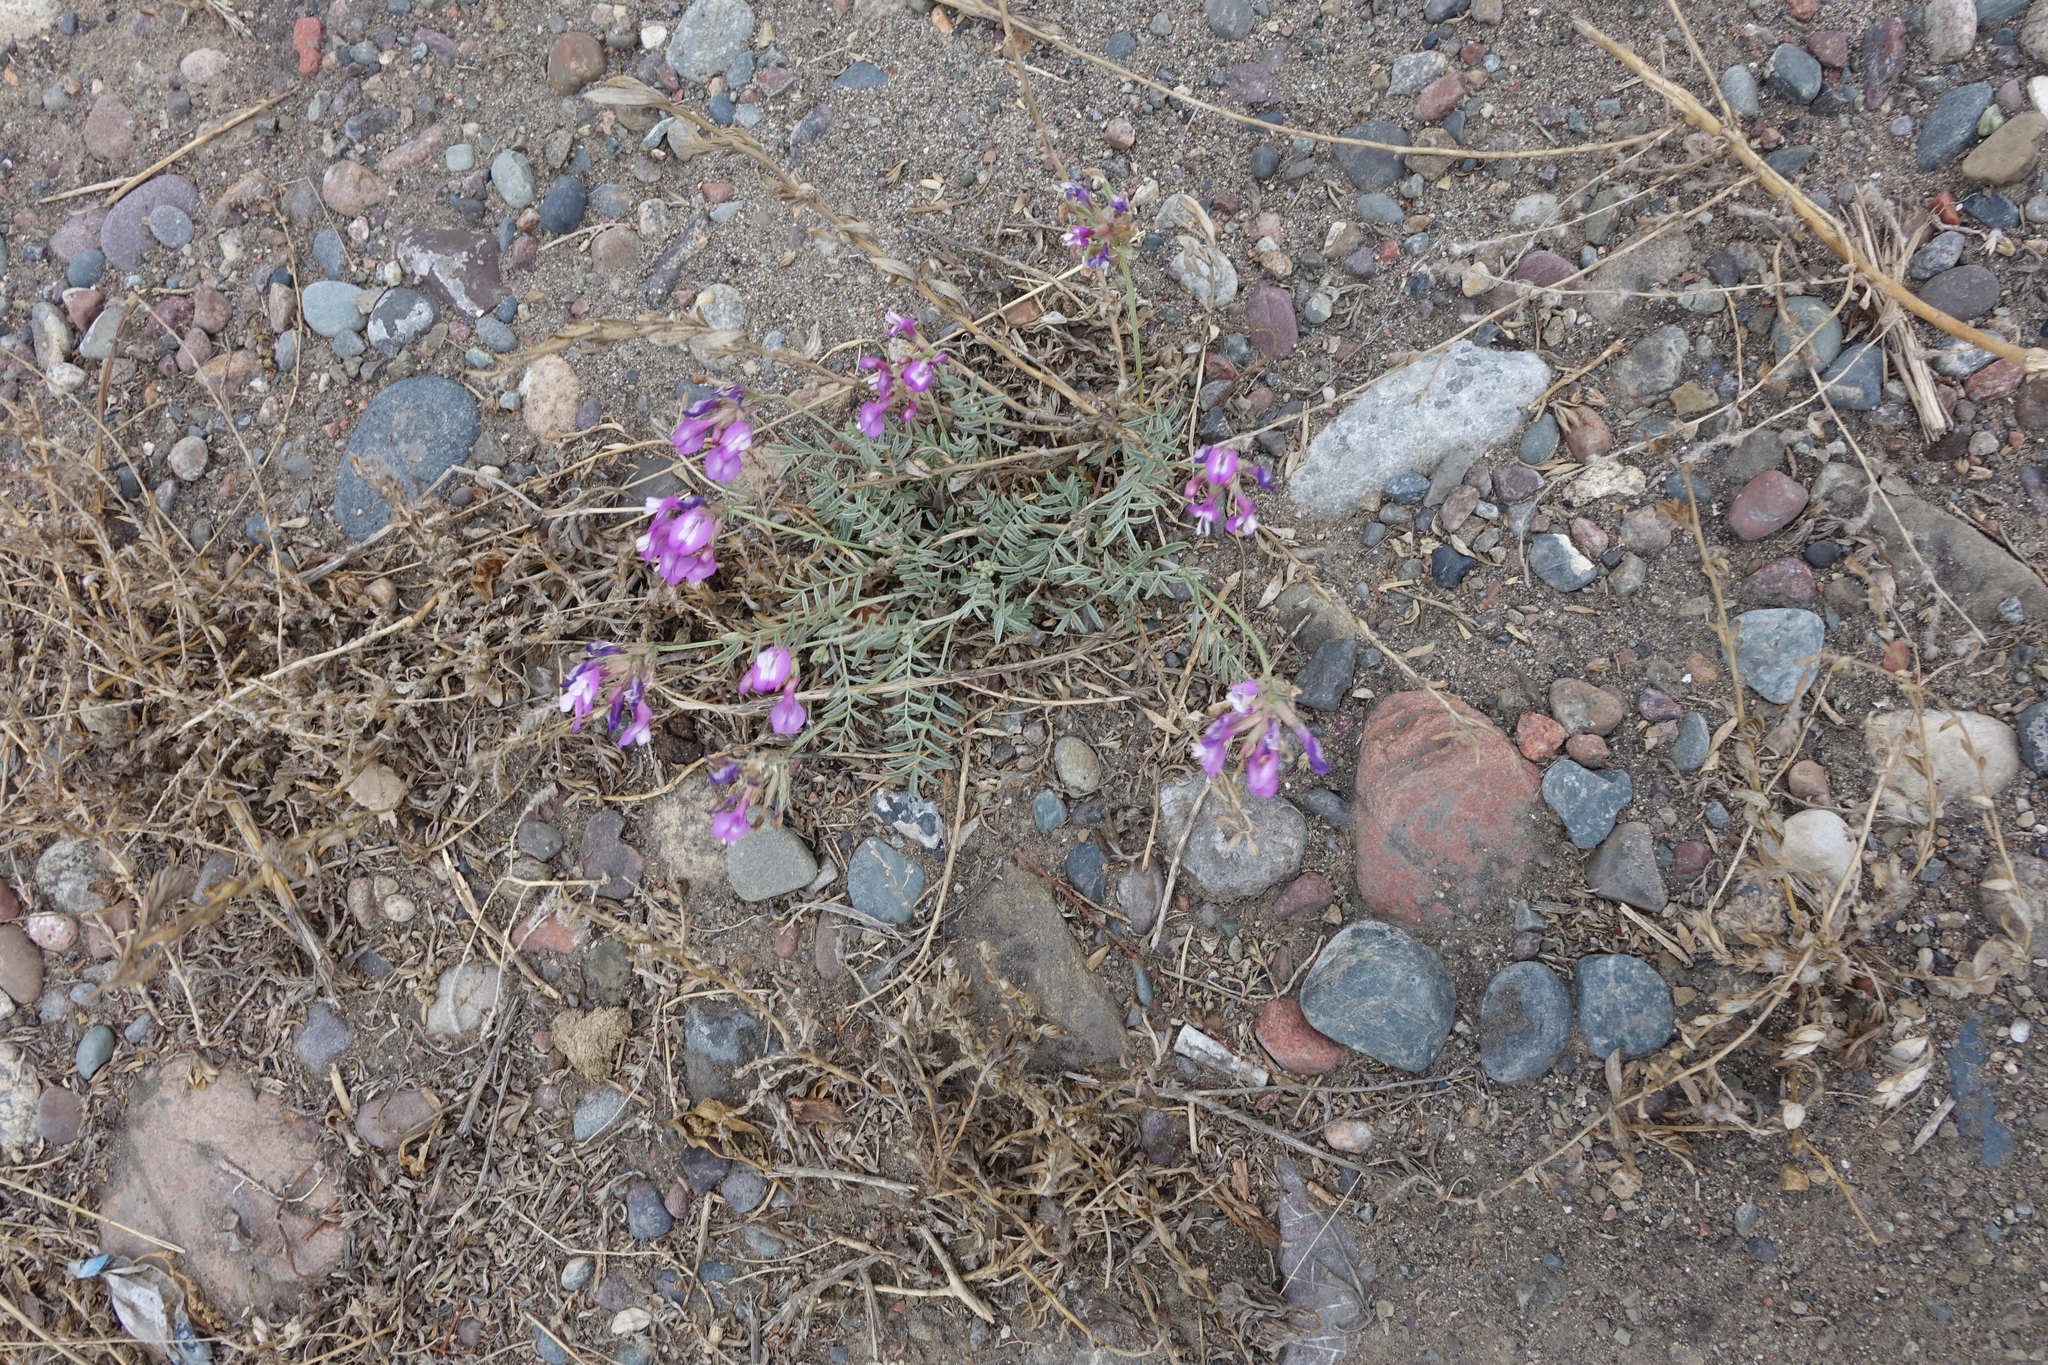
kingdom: Plantae
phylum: Tracheophyta
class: Magnoliopsida
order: Fabales
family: Fabaceae
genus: Astragalus
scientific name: Astragalus stenoceras
